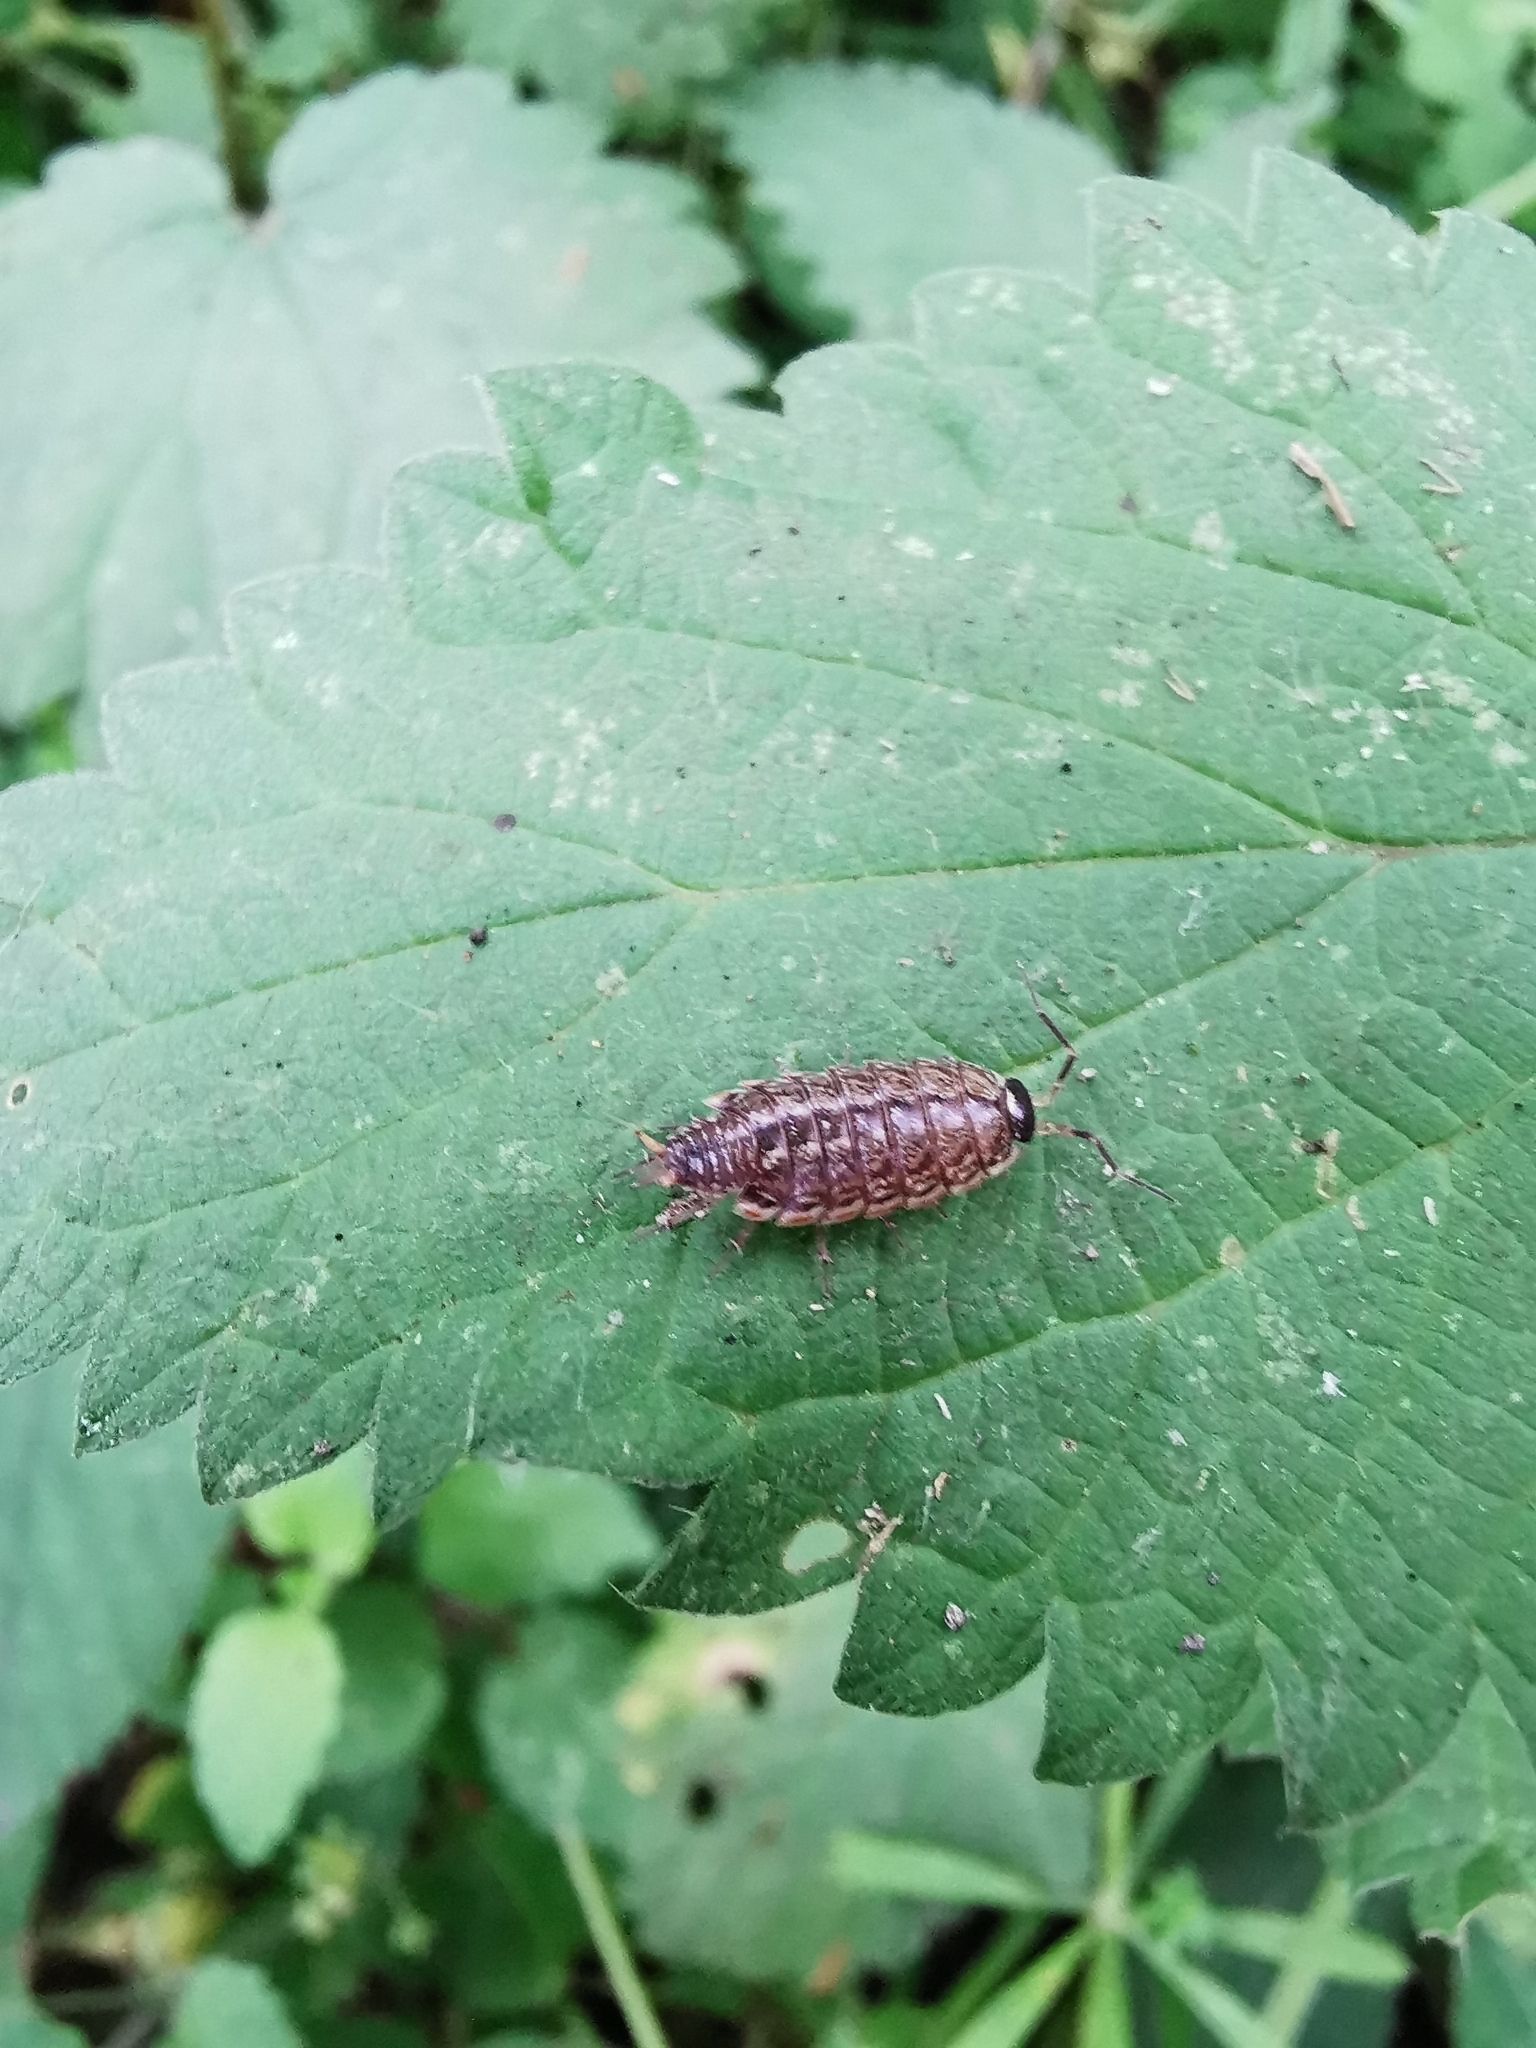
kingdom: Animalia
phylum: Arthropoda
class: Malacostraca
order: Isopoda
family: Philosciidae
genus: Philoscia
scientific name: Philoscia muscorum
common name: Common striped woodlouse
